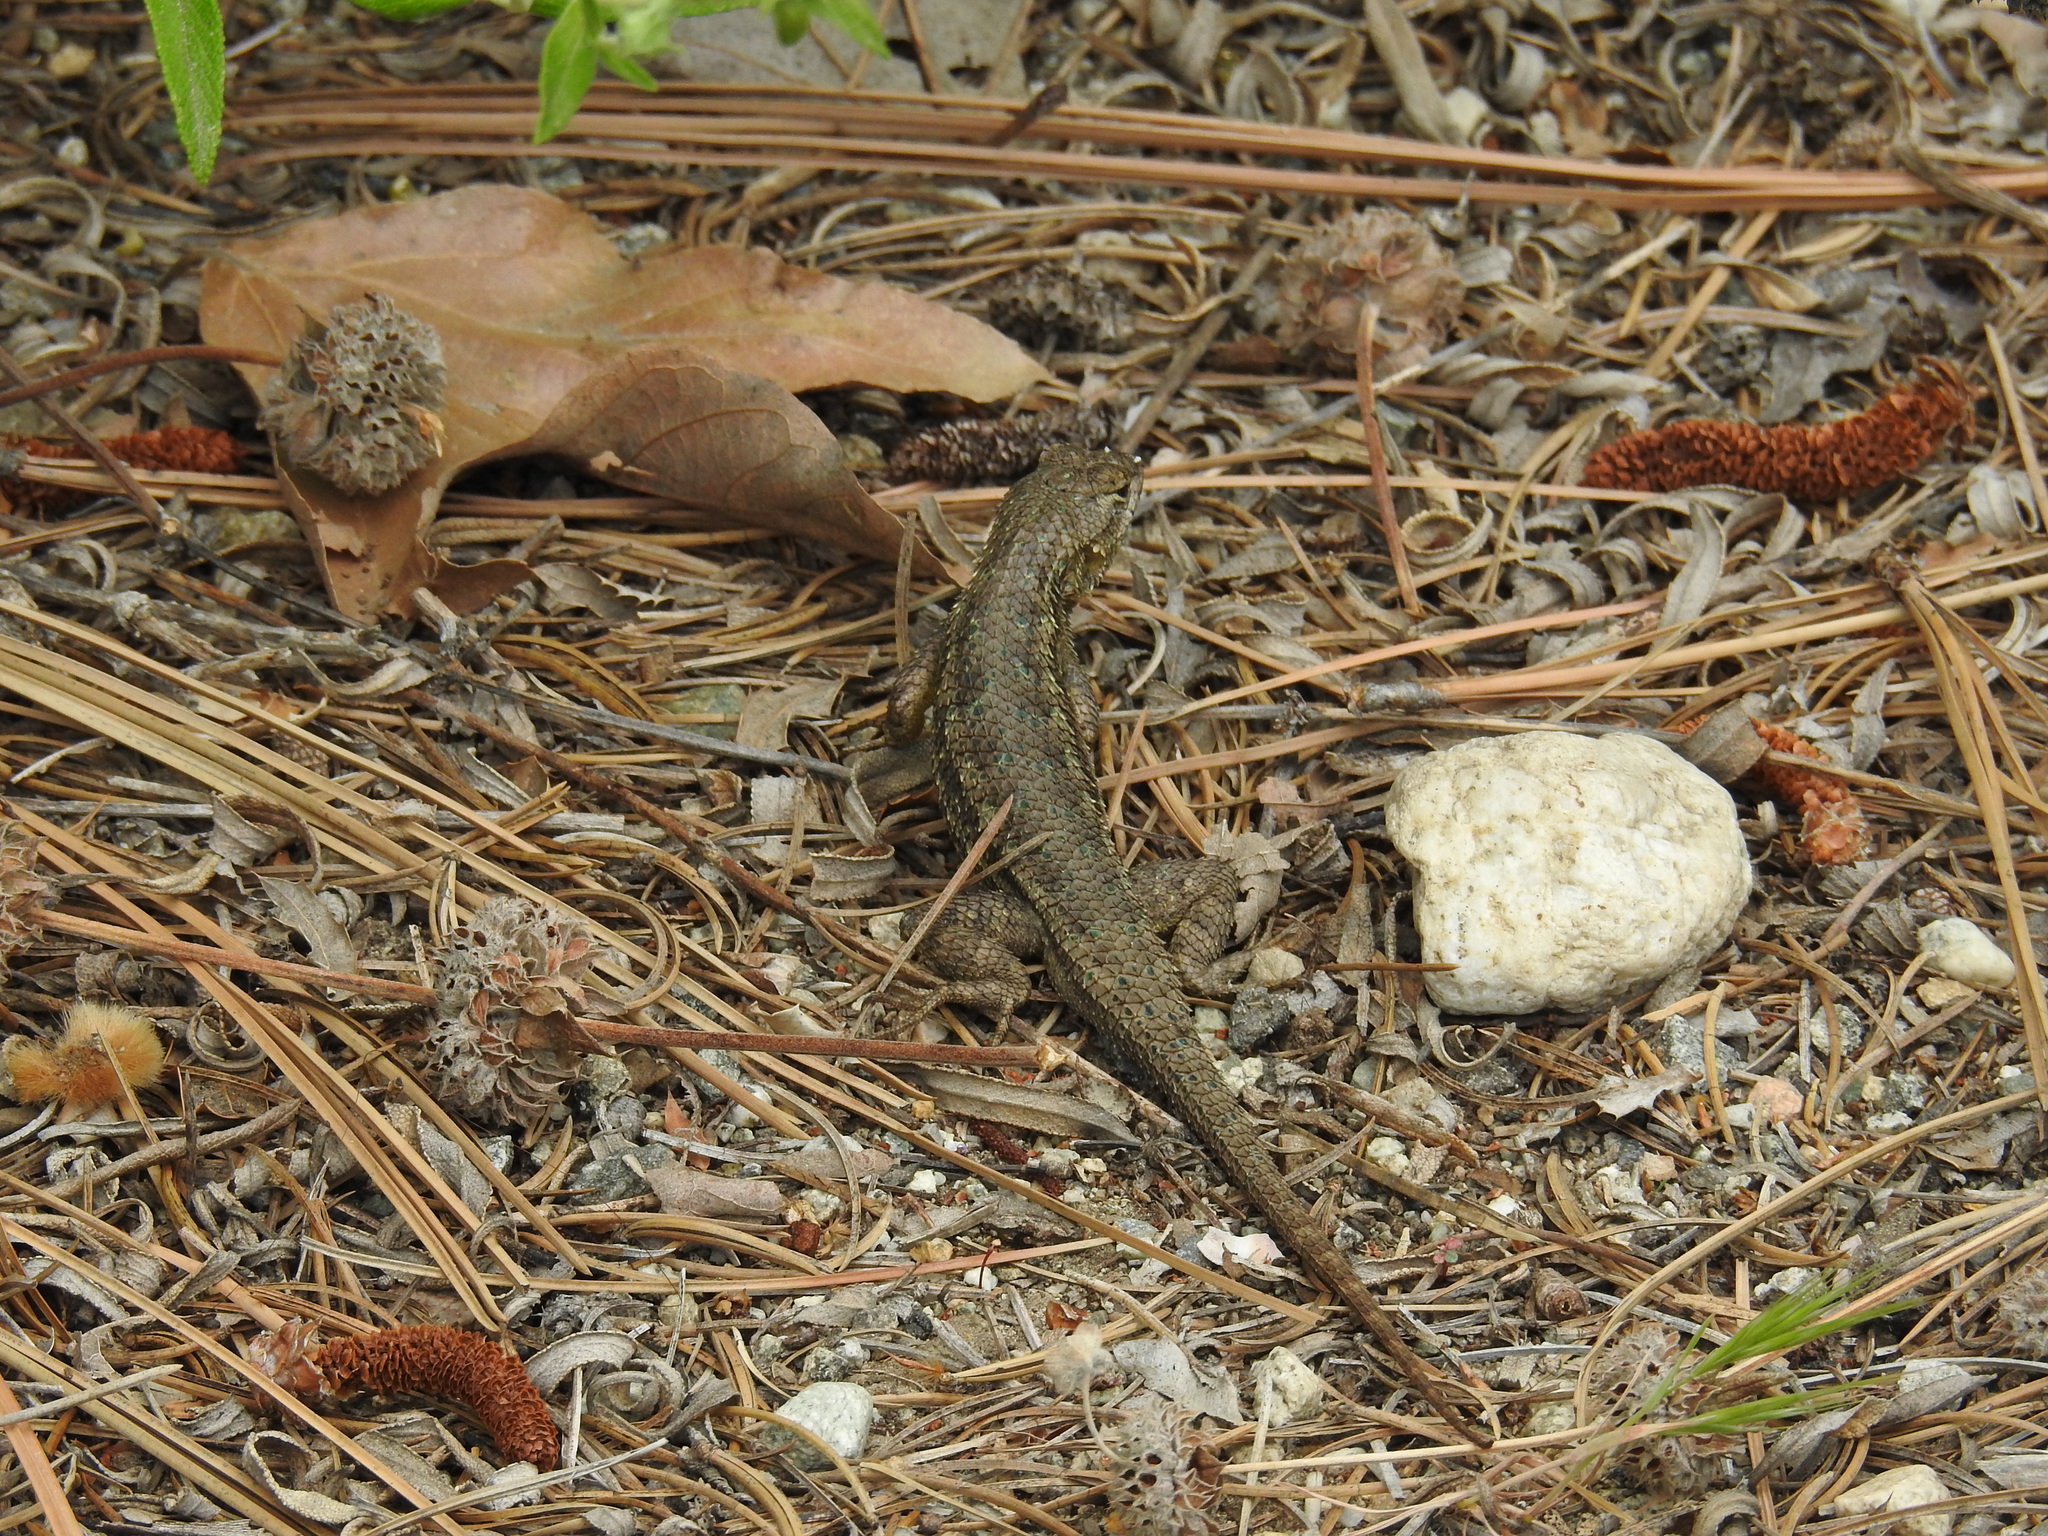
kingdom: Animalia
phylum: Chordata
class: Squamata
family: Phrynosomatidae
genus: Sceloporus
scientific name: Sceloporus occidentalis
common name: Western fence lizard
